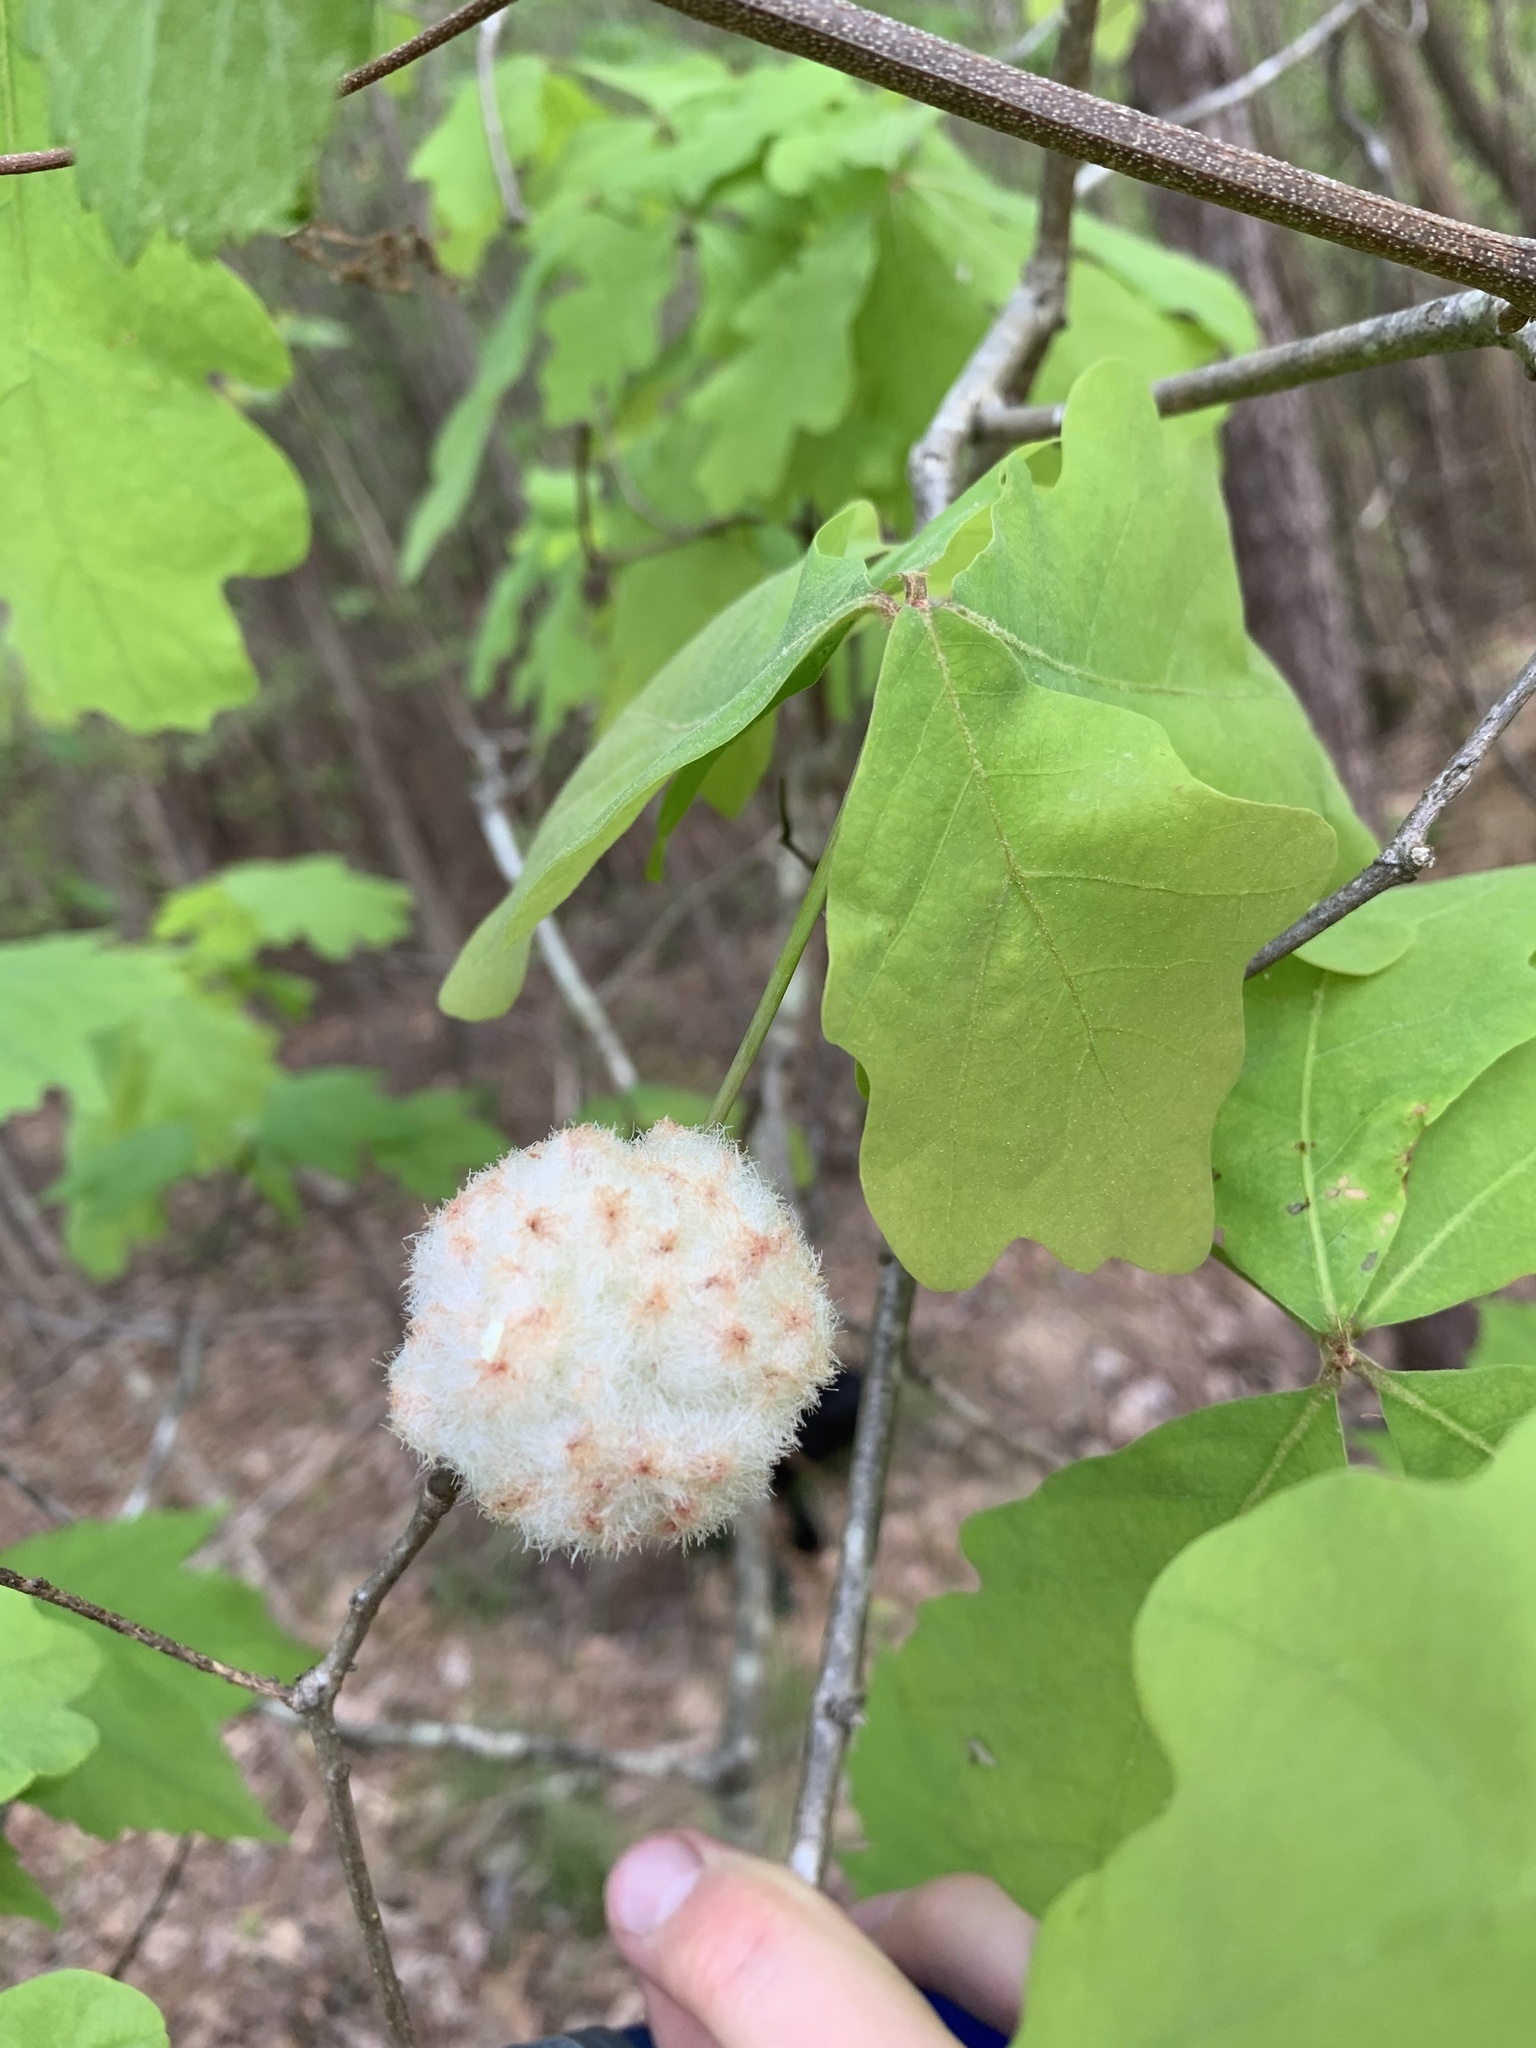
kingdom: Animalia
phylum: Arthropoda
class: Insecta
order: Hymenoptera
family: Cynipidae
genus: Callirhytis
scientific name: Callirhytis
